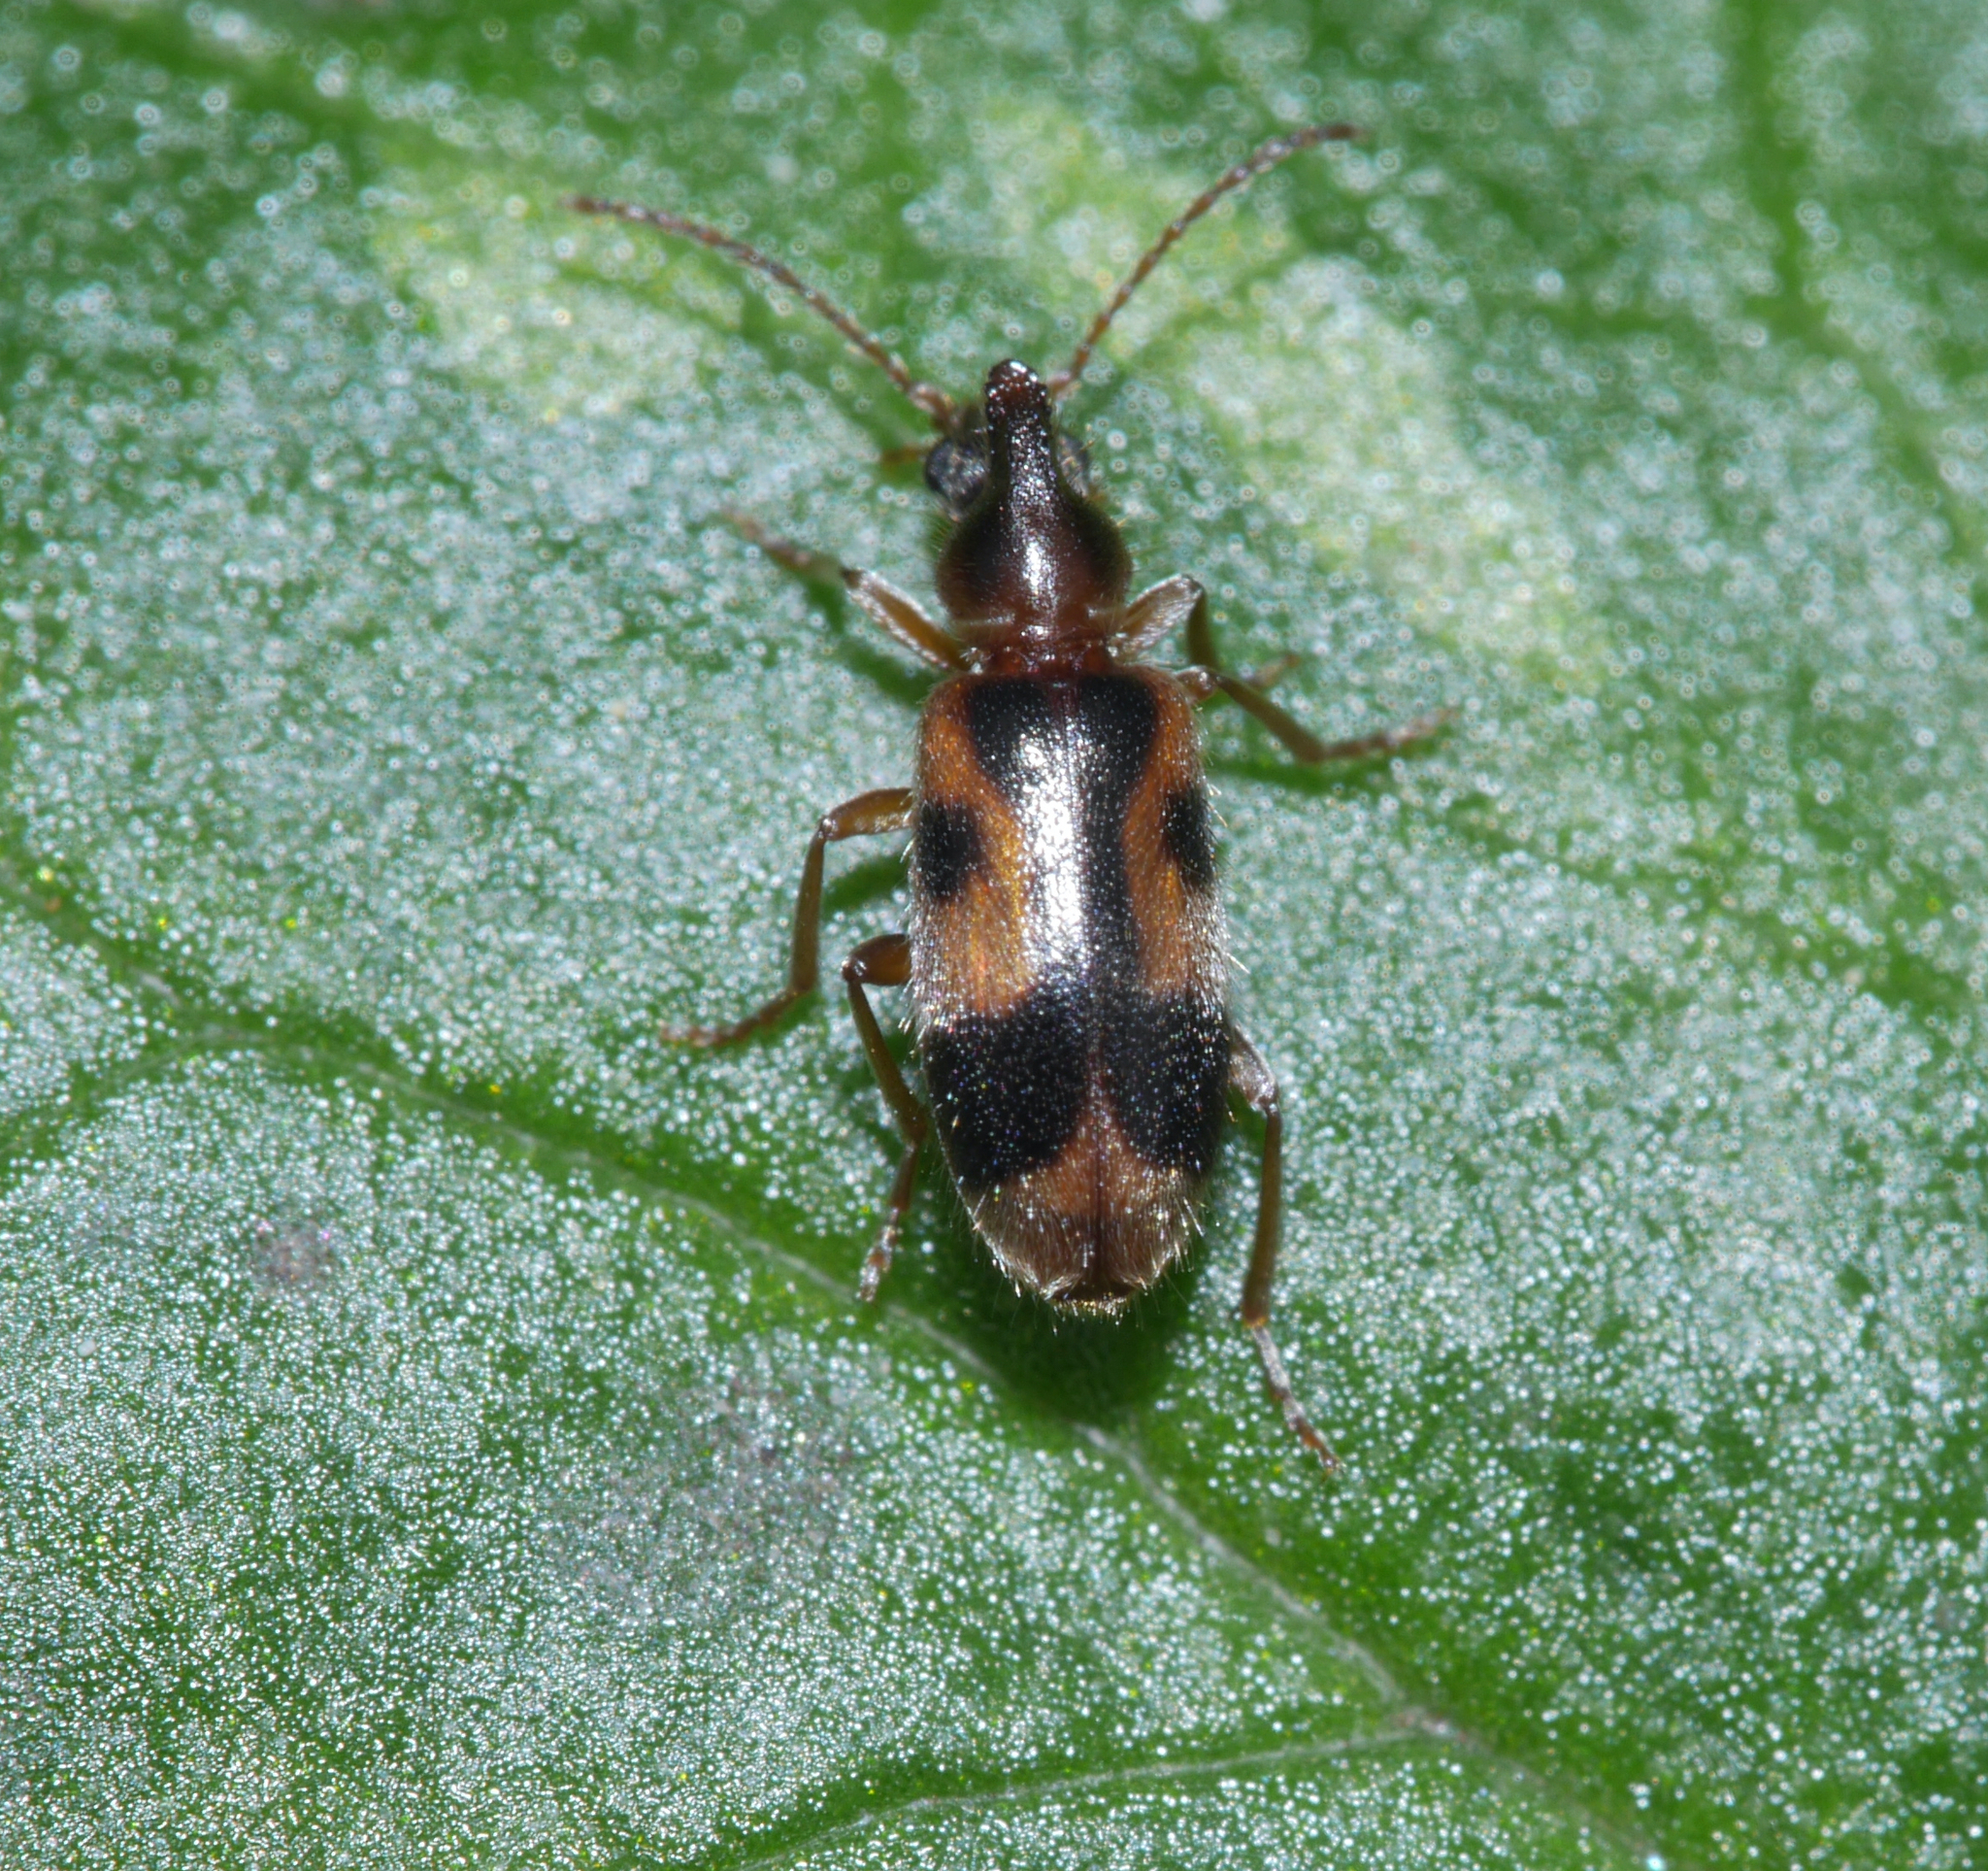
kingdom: Animalia
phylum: Arthropoda
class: Insecta
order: Coleoptera
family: Anthicidae
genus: Notoxus
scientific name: Notoxus monoceros
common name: Monoceros beetle
